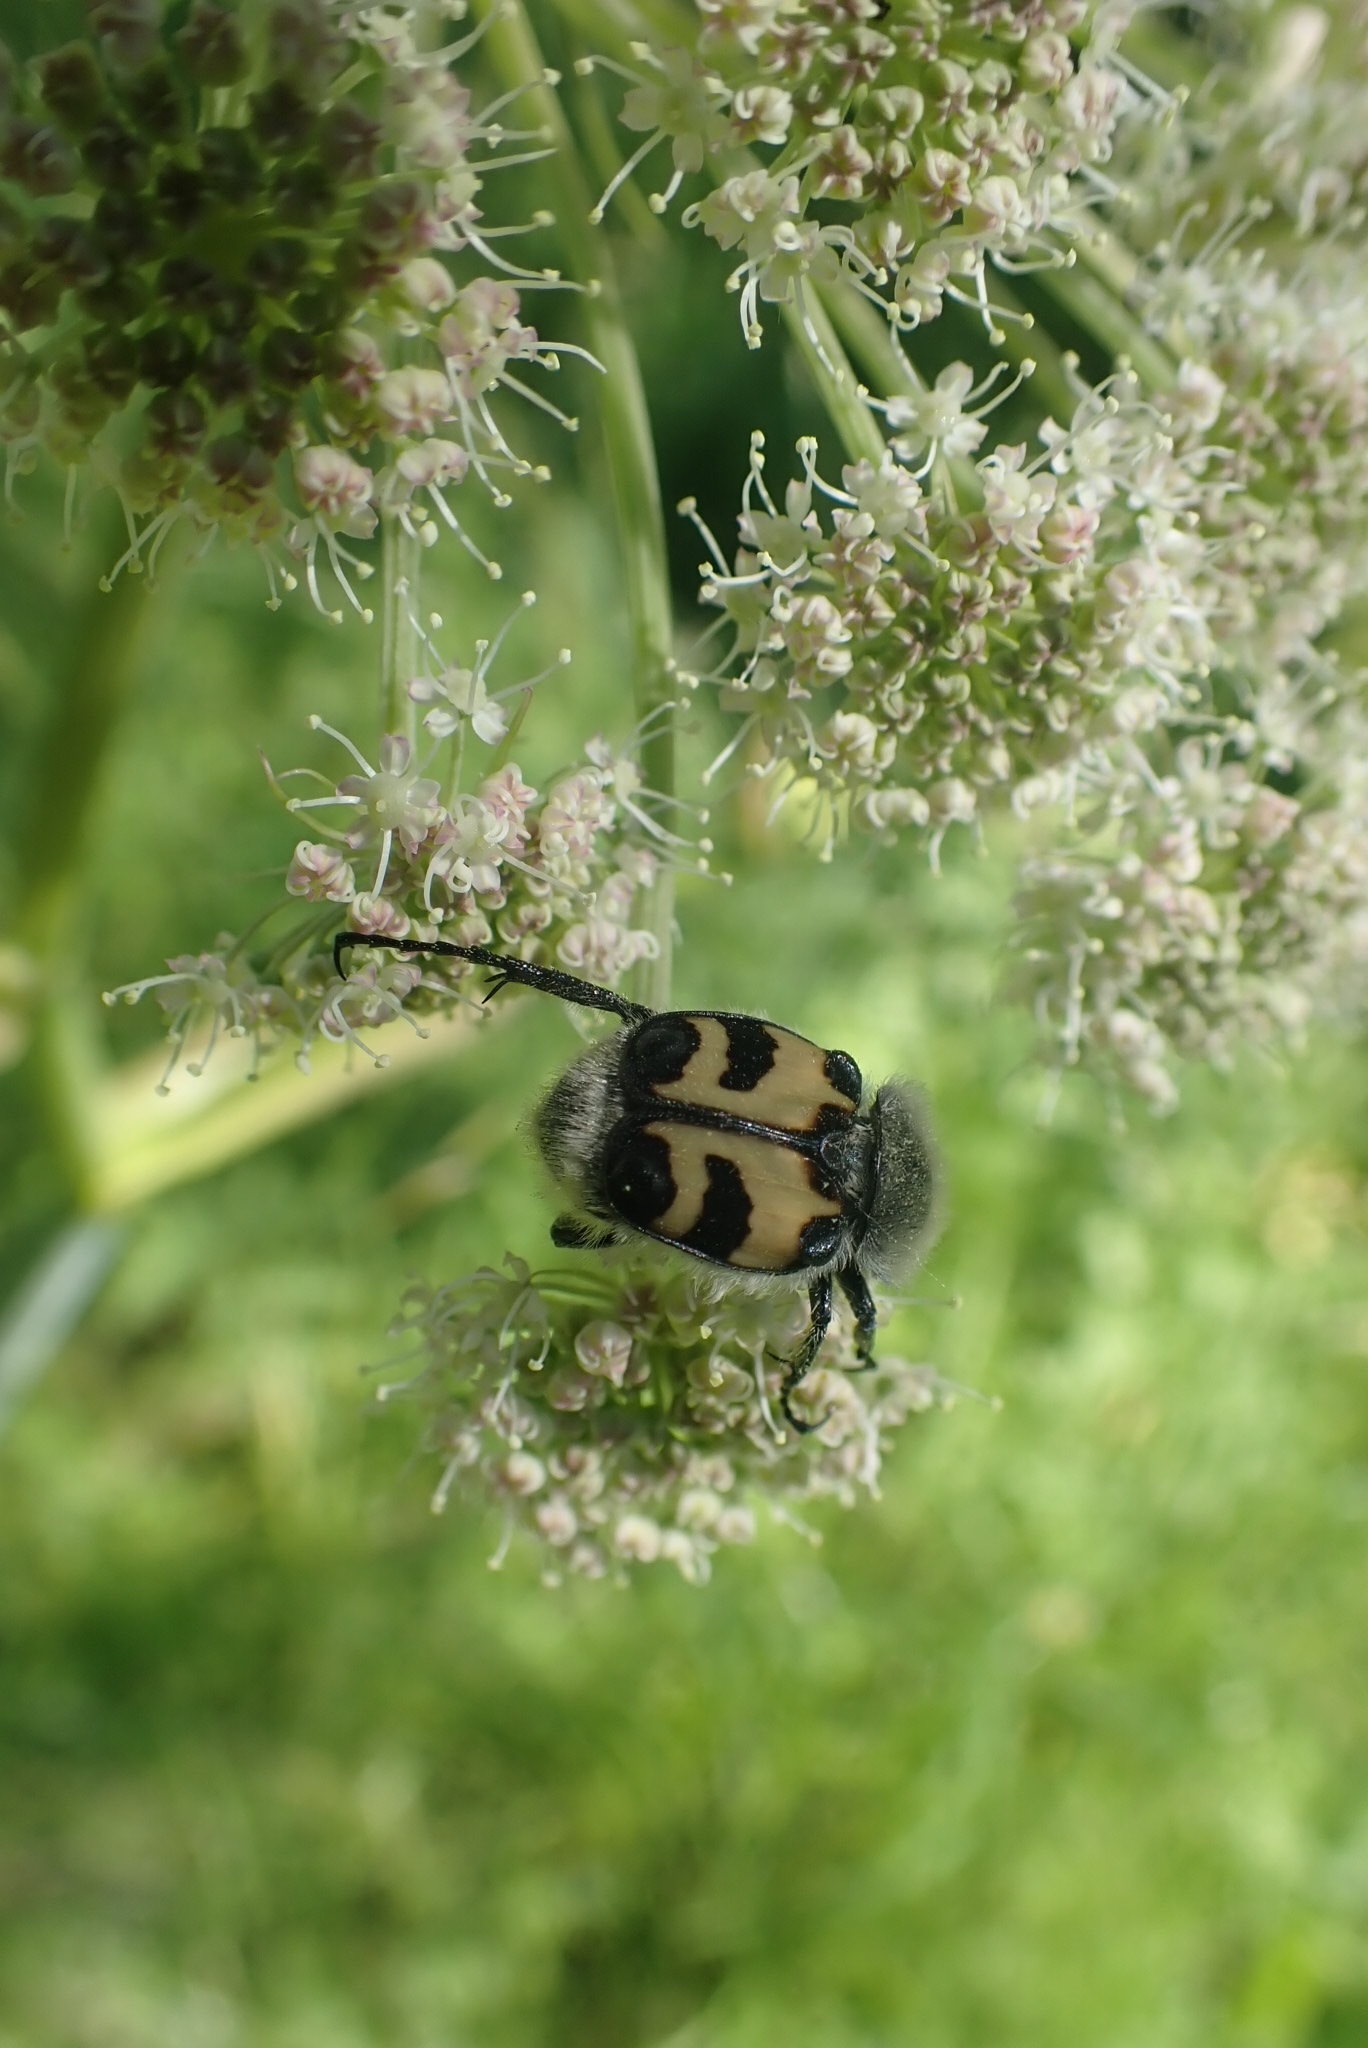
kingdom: Animalia
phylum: Arthropoda
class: Insecta
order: Coleoptera
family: Scarabaeidae
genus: Trichius
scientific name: Trichius fasciatus
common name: Bee beetle
